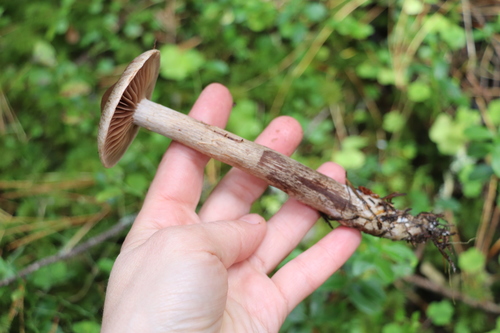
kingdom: Fungi
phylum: Basidiomycota
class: Agaricomycetes
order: Agaricales
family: Cortinariaceae
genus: Cortinarius
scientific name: Cortinarius
